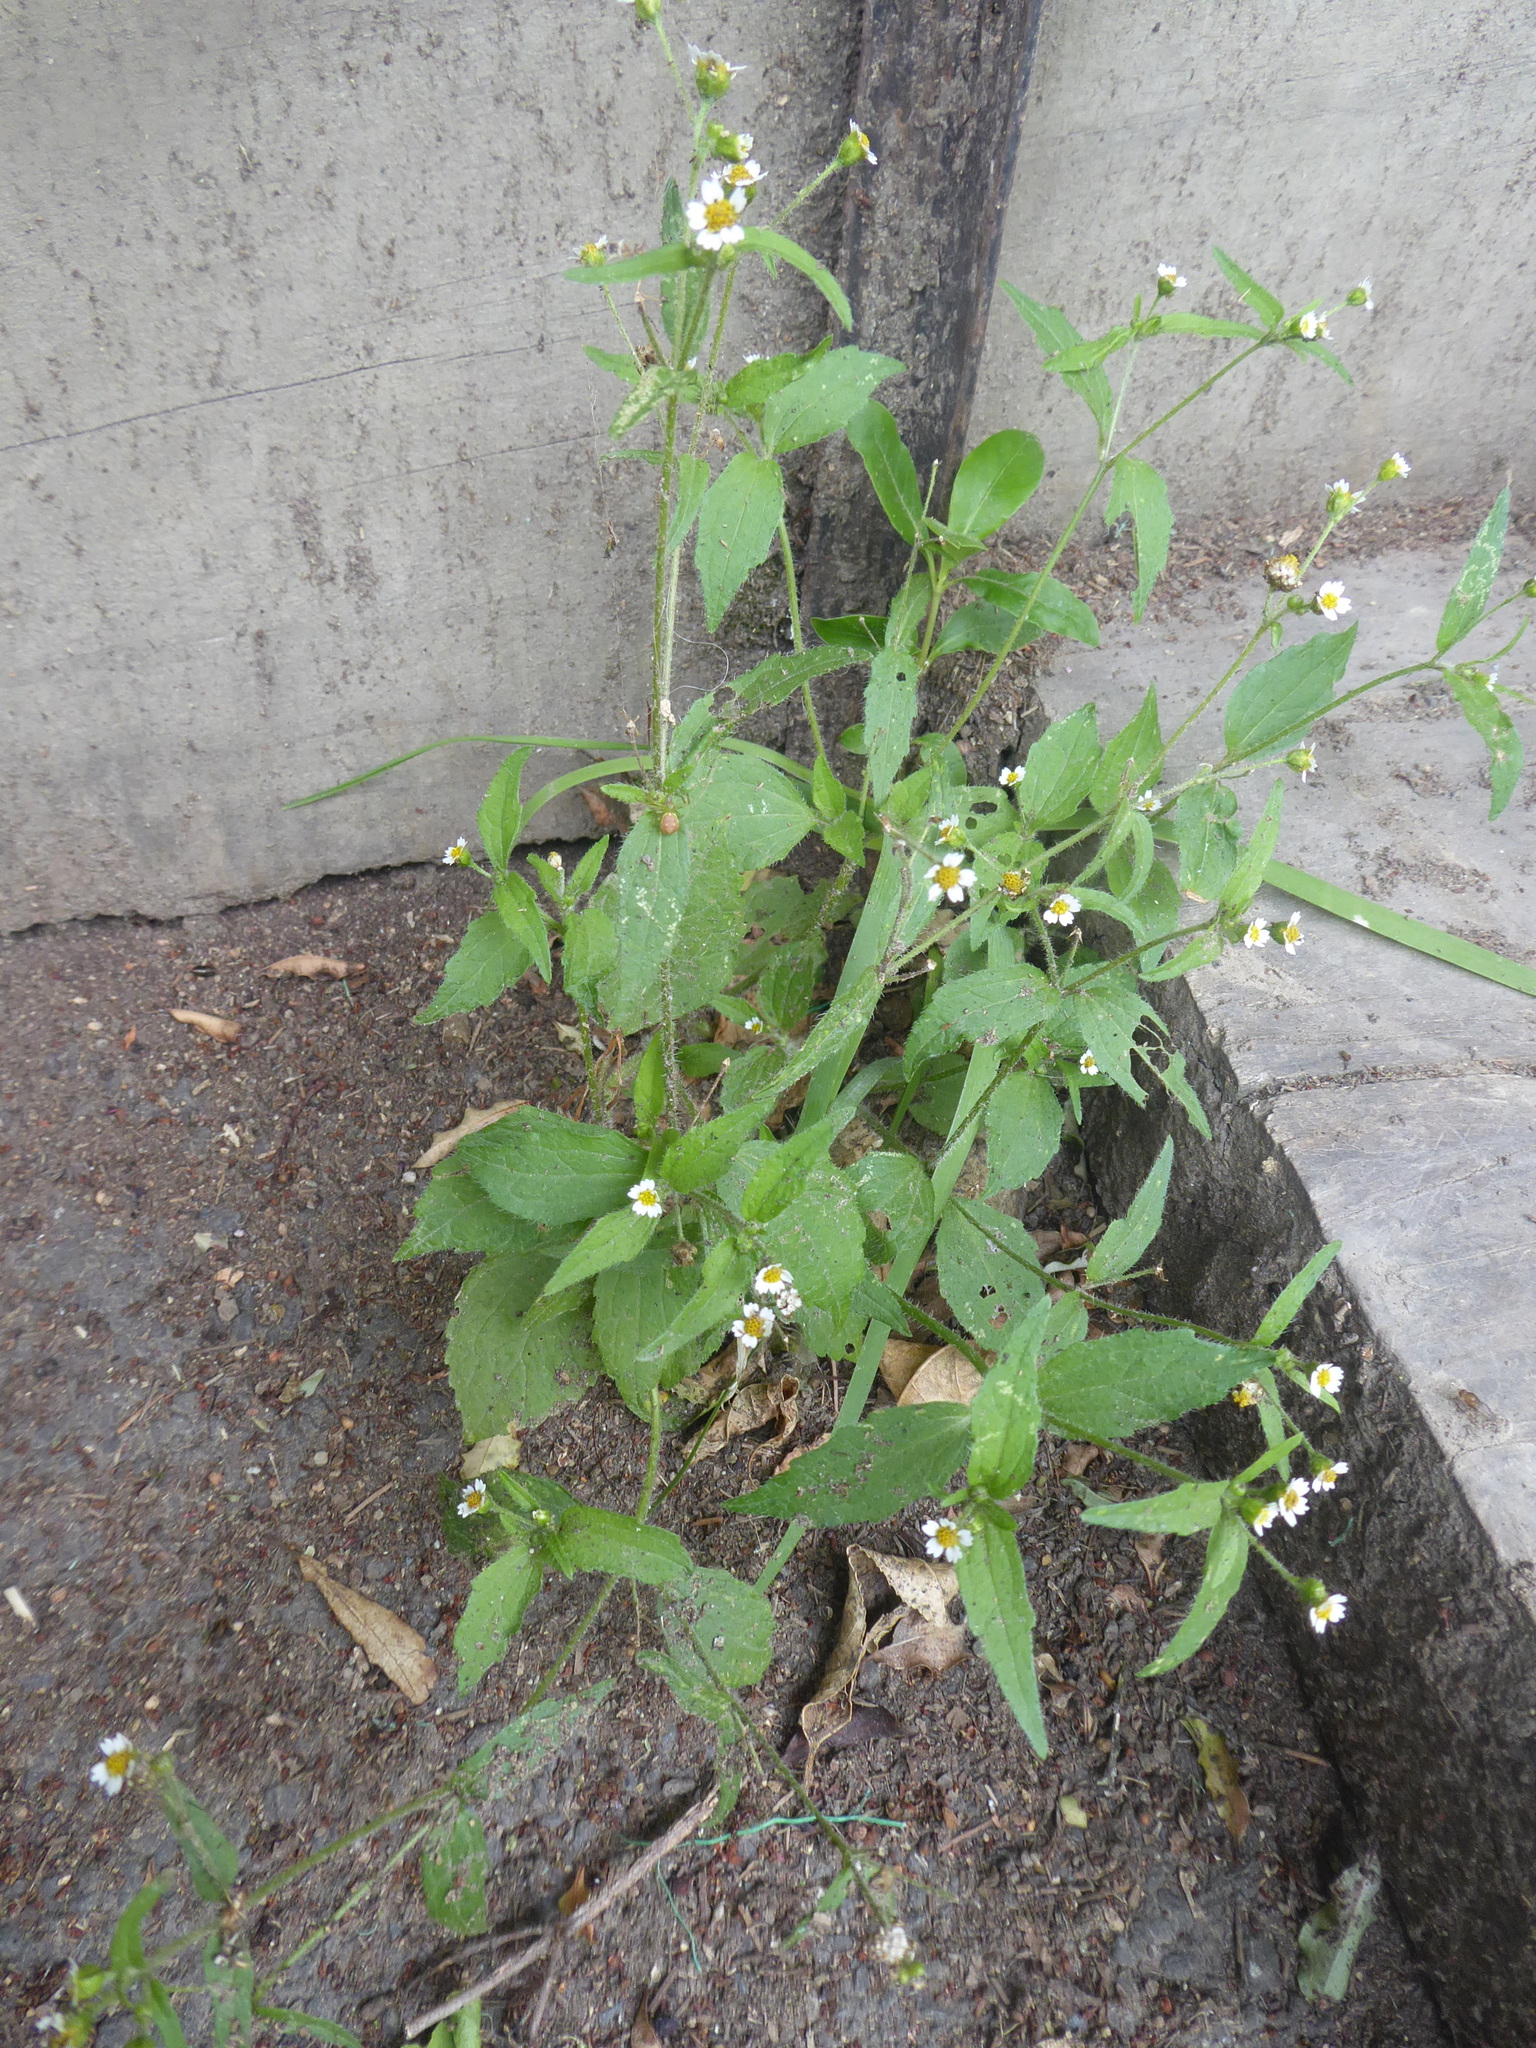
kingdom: Plantae
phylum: Tracheophyta
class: Magnoliopsida
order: Asterales
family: Asteraceae
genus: Galinsoga
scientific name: Galinsoga quadriradiata
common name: Shaggy soldier
